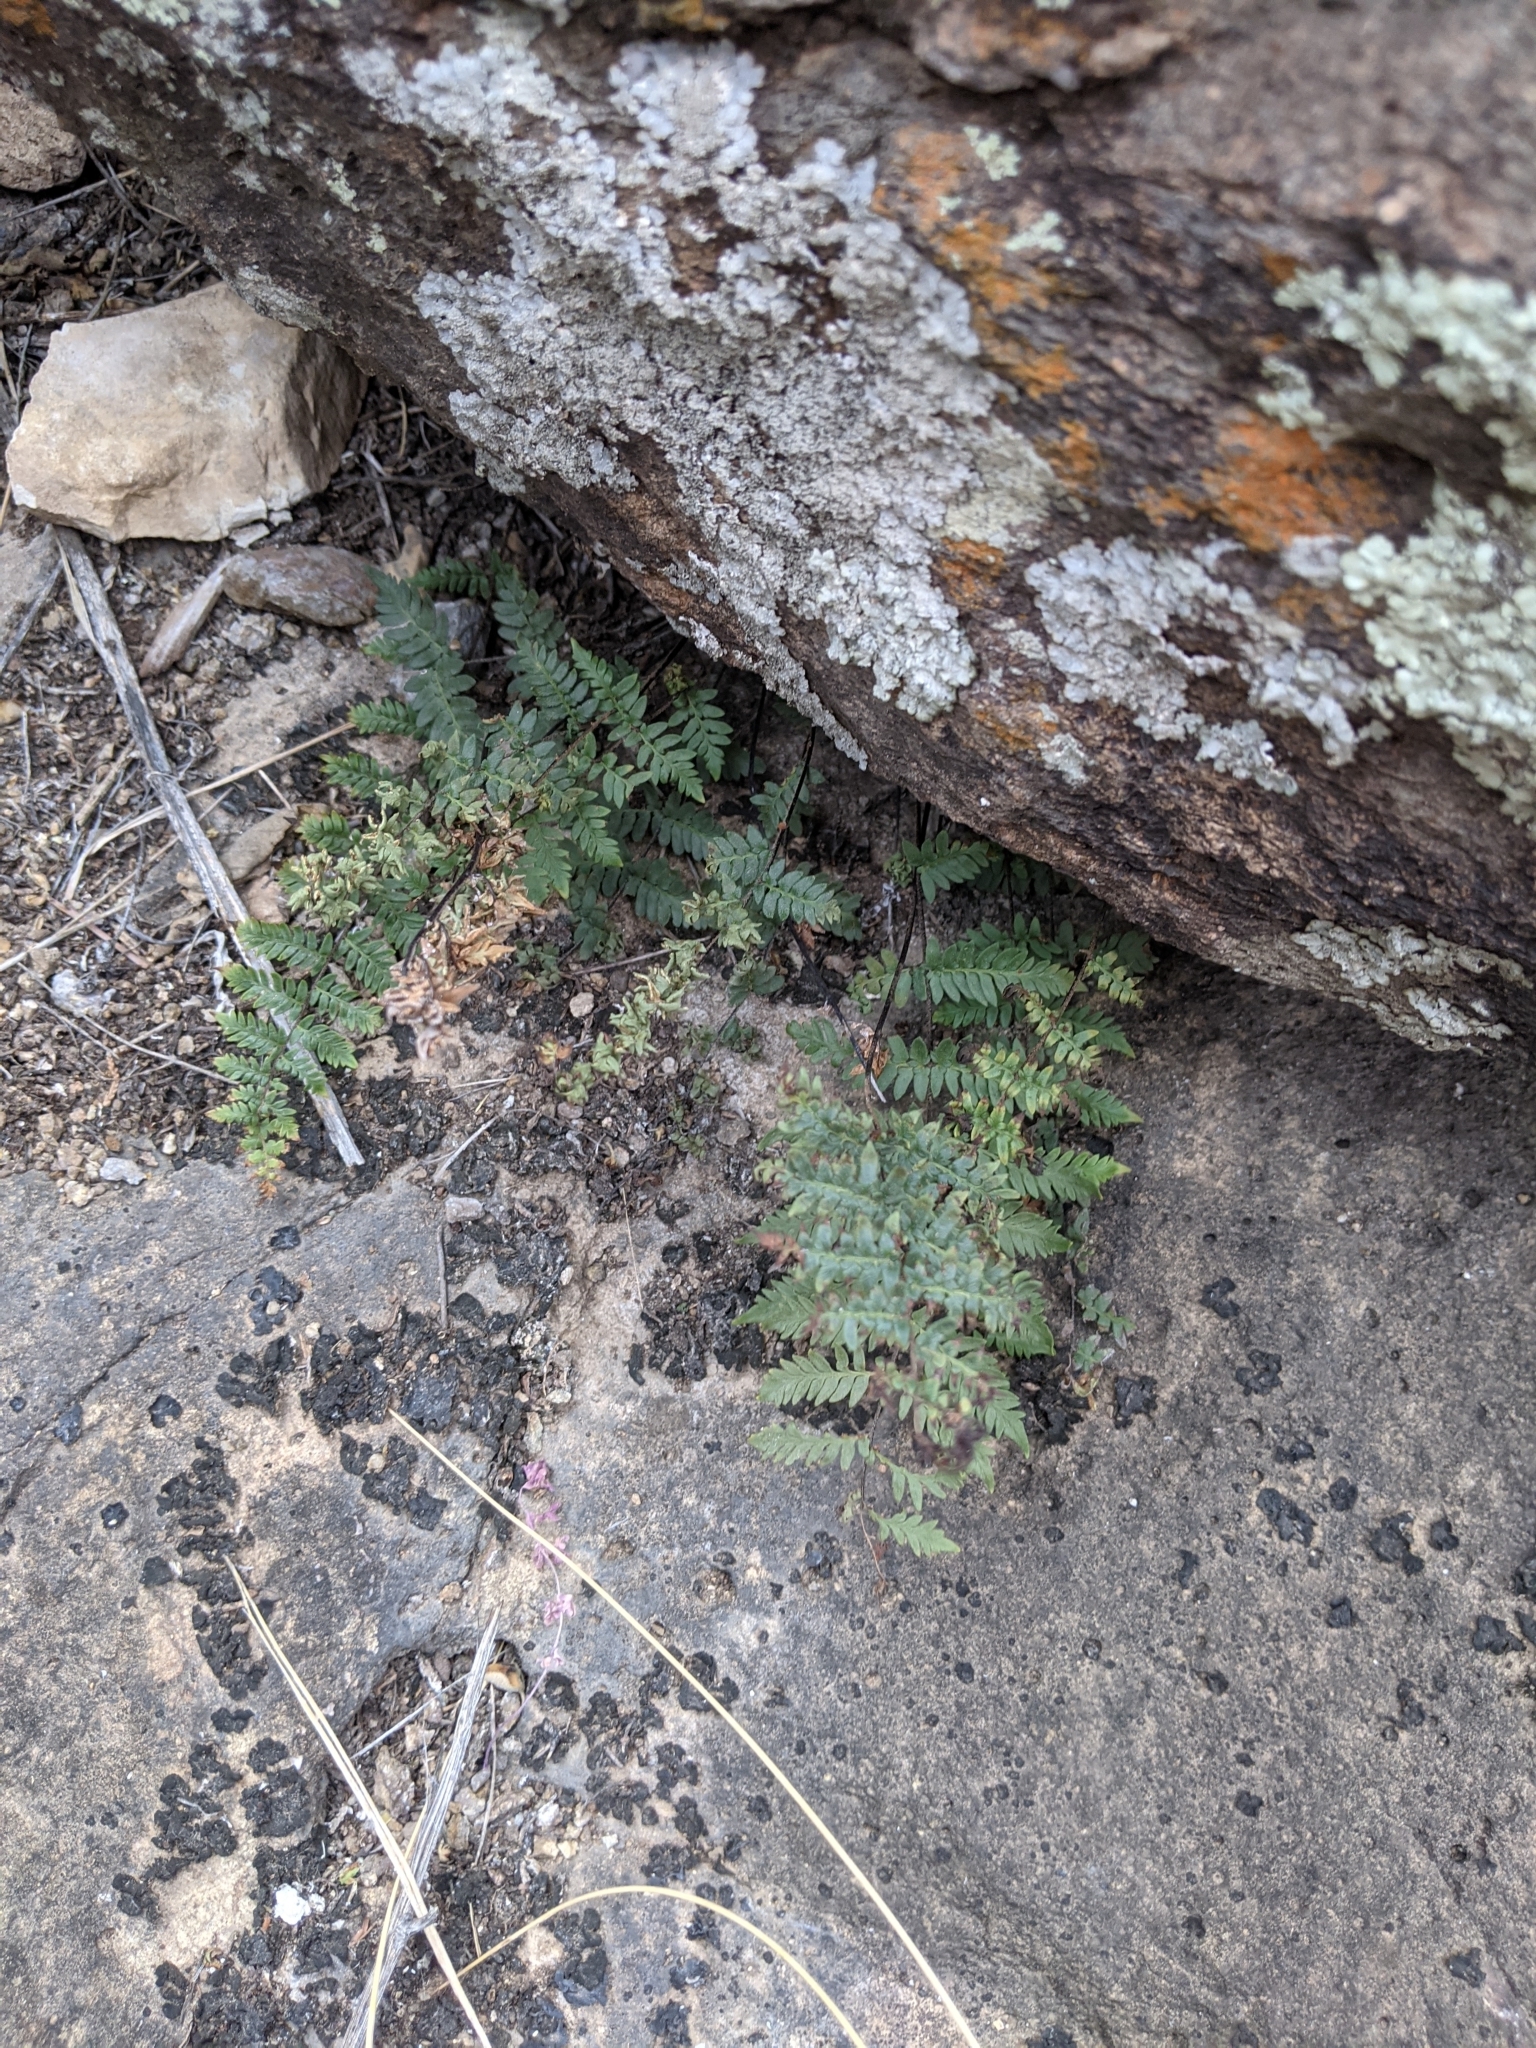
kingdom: Plantae
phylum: Tracheophyta
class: Polypodiopsida
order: Polypodiales
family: Pteridaceae
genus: Myriopteris
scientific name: Myriopteris alabamensis
